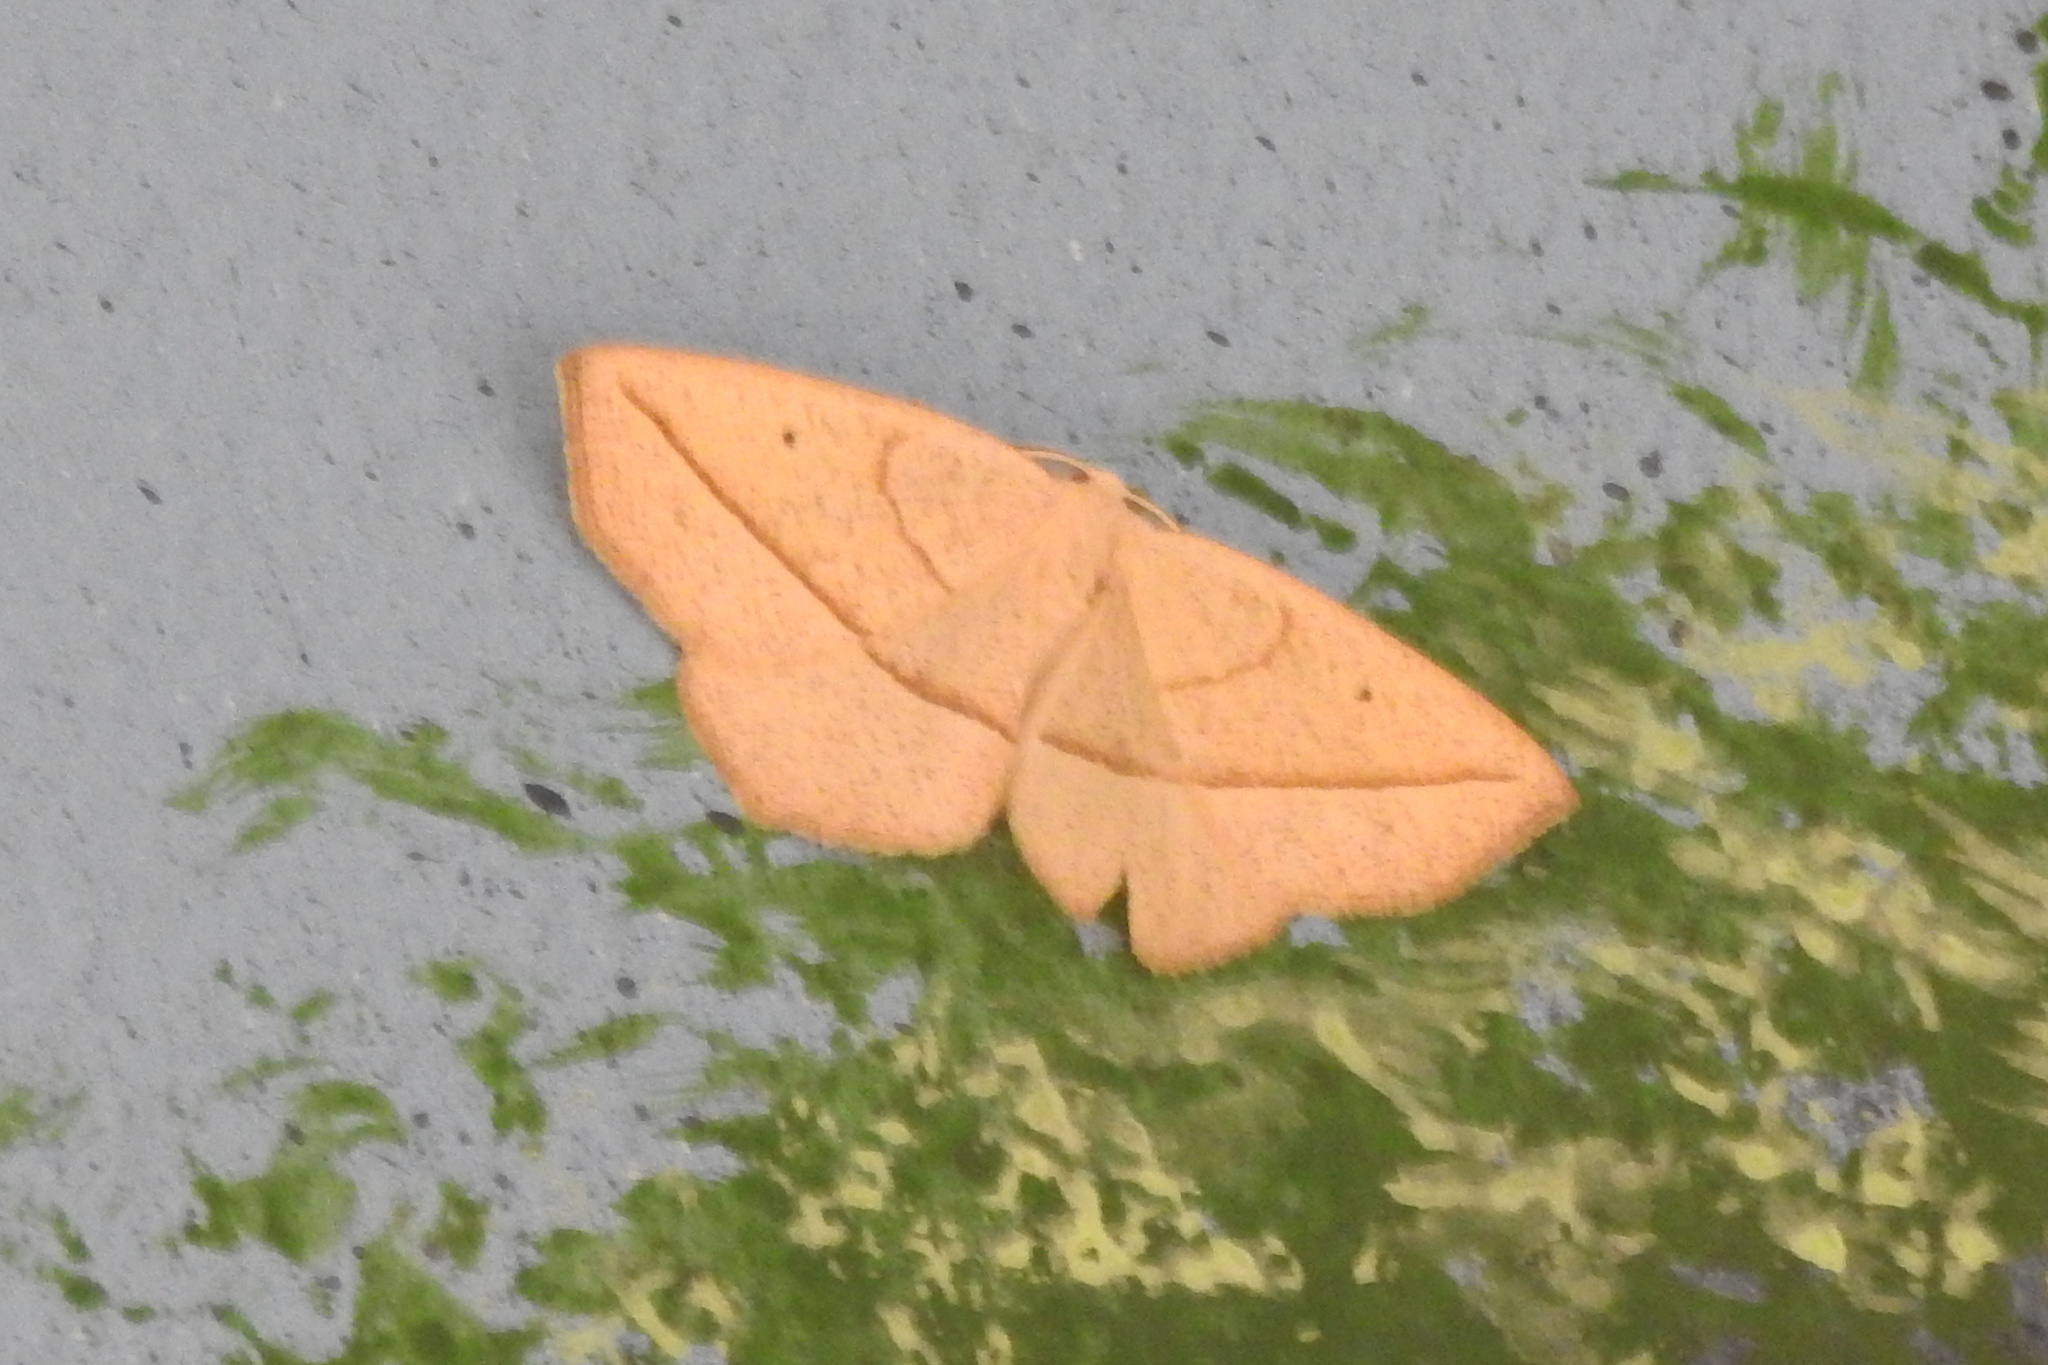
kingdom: Animalia
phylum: Arthropoda
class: Insecta
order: Lepidoptera
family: Geometridae
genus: Eusarca
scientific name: Eusarca confusaria
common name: Confused eusarca
